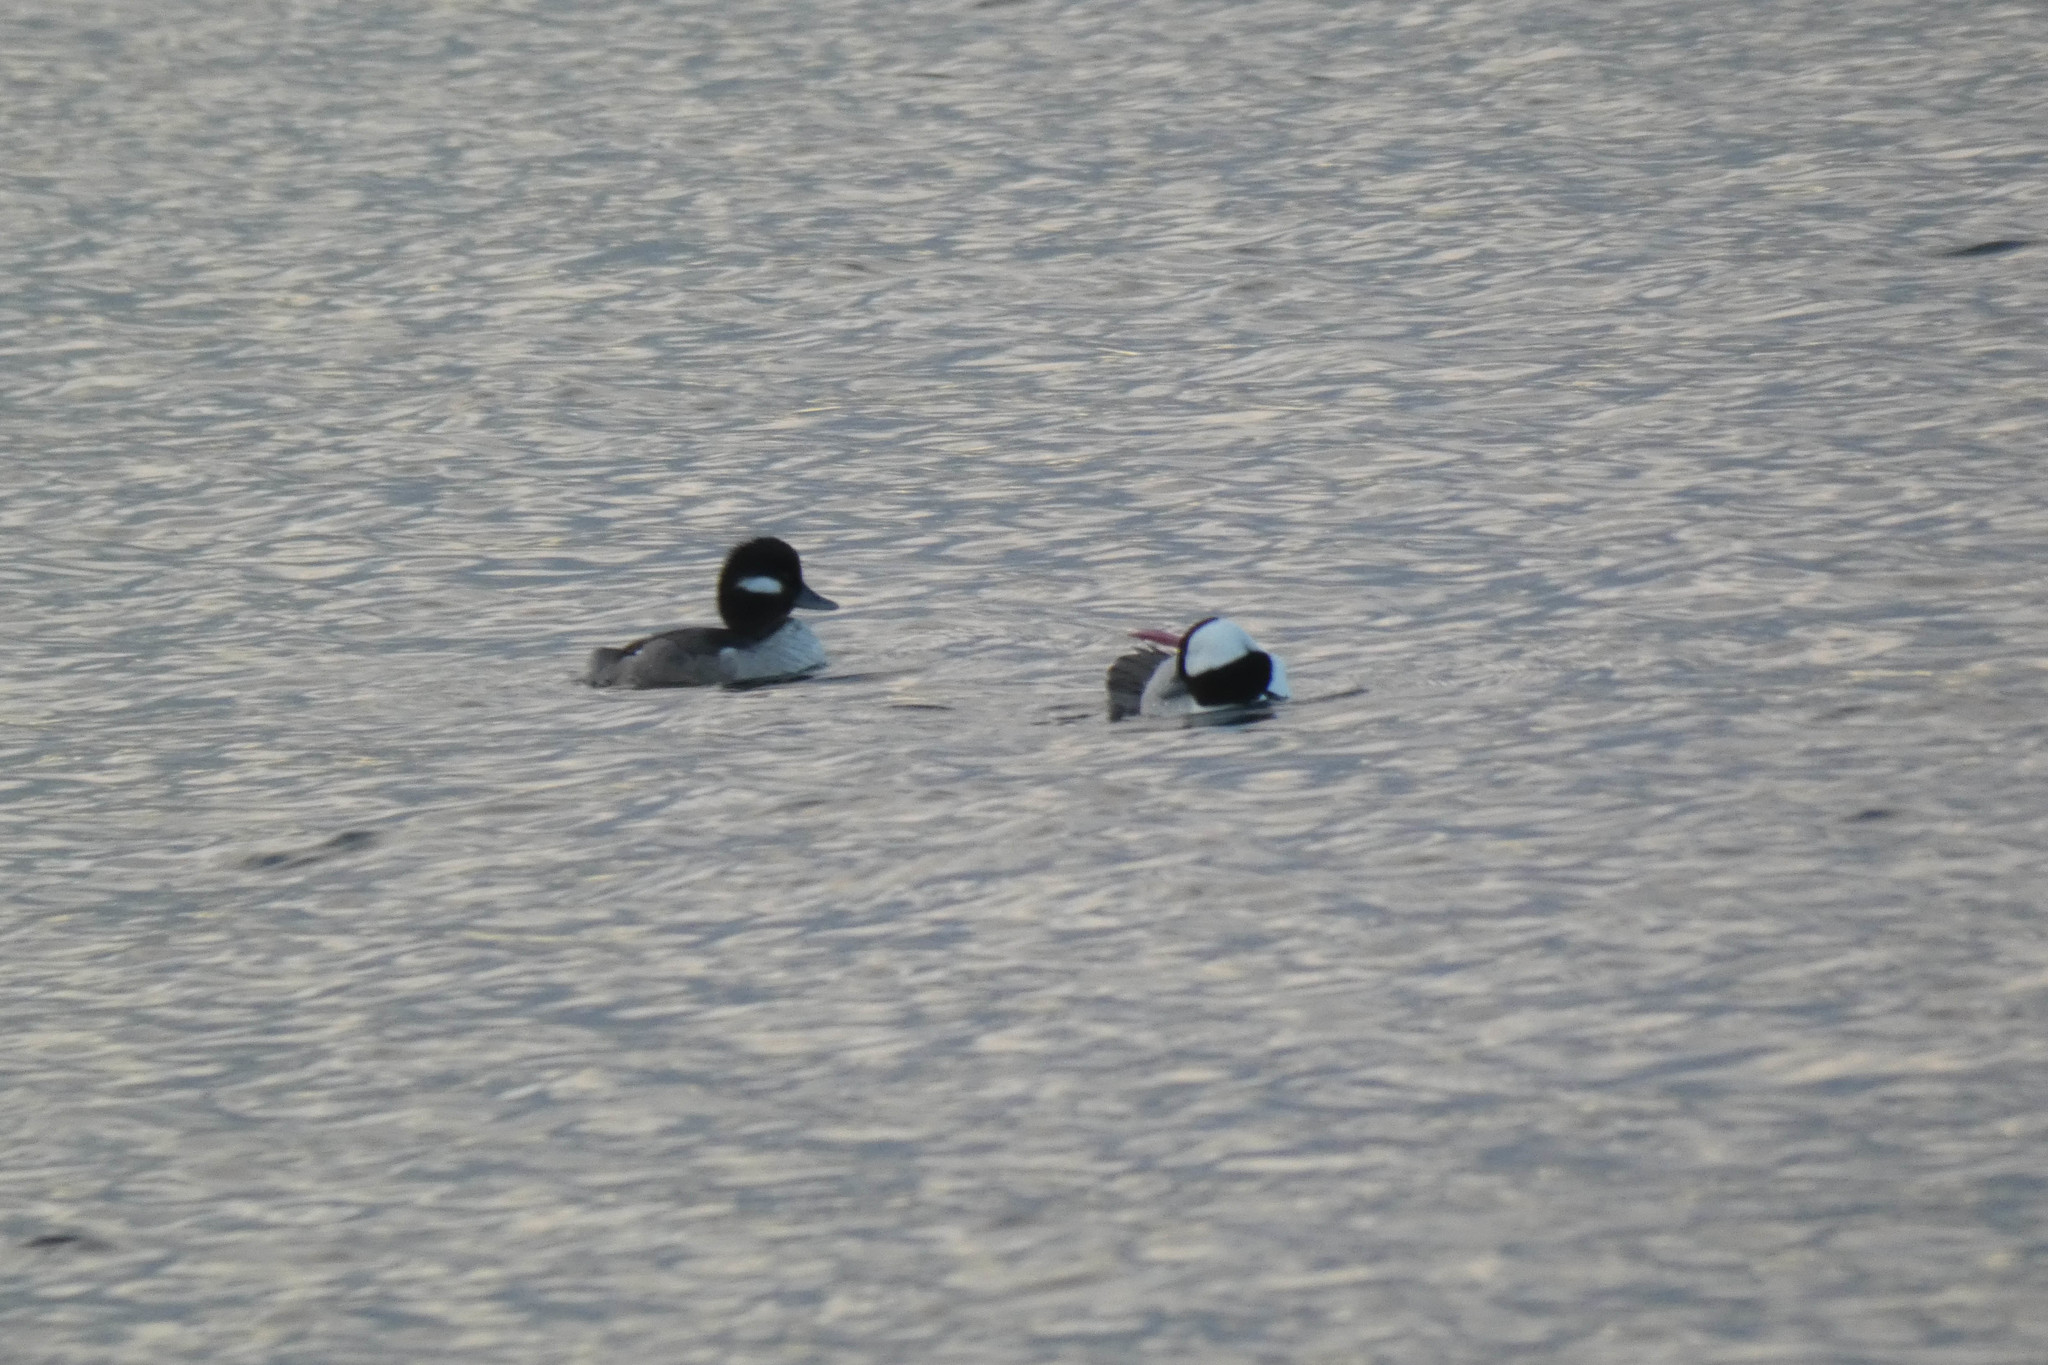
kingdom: Animalia
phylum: Chordata
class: Aves
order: Anseriformes
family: Anatidae
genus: Bucephala
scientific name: Bucephala albeola
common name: Bufflehead
